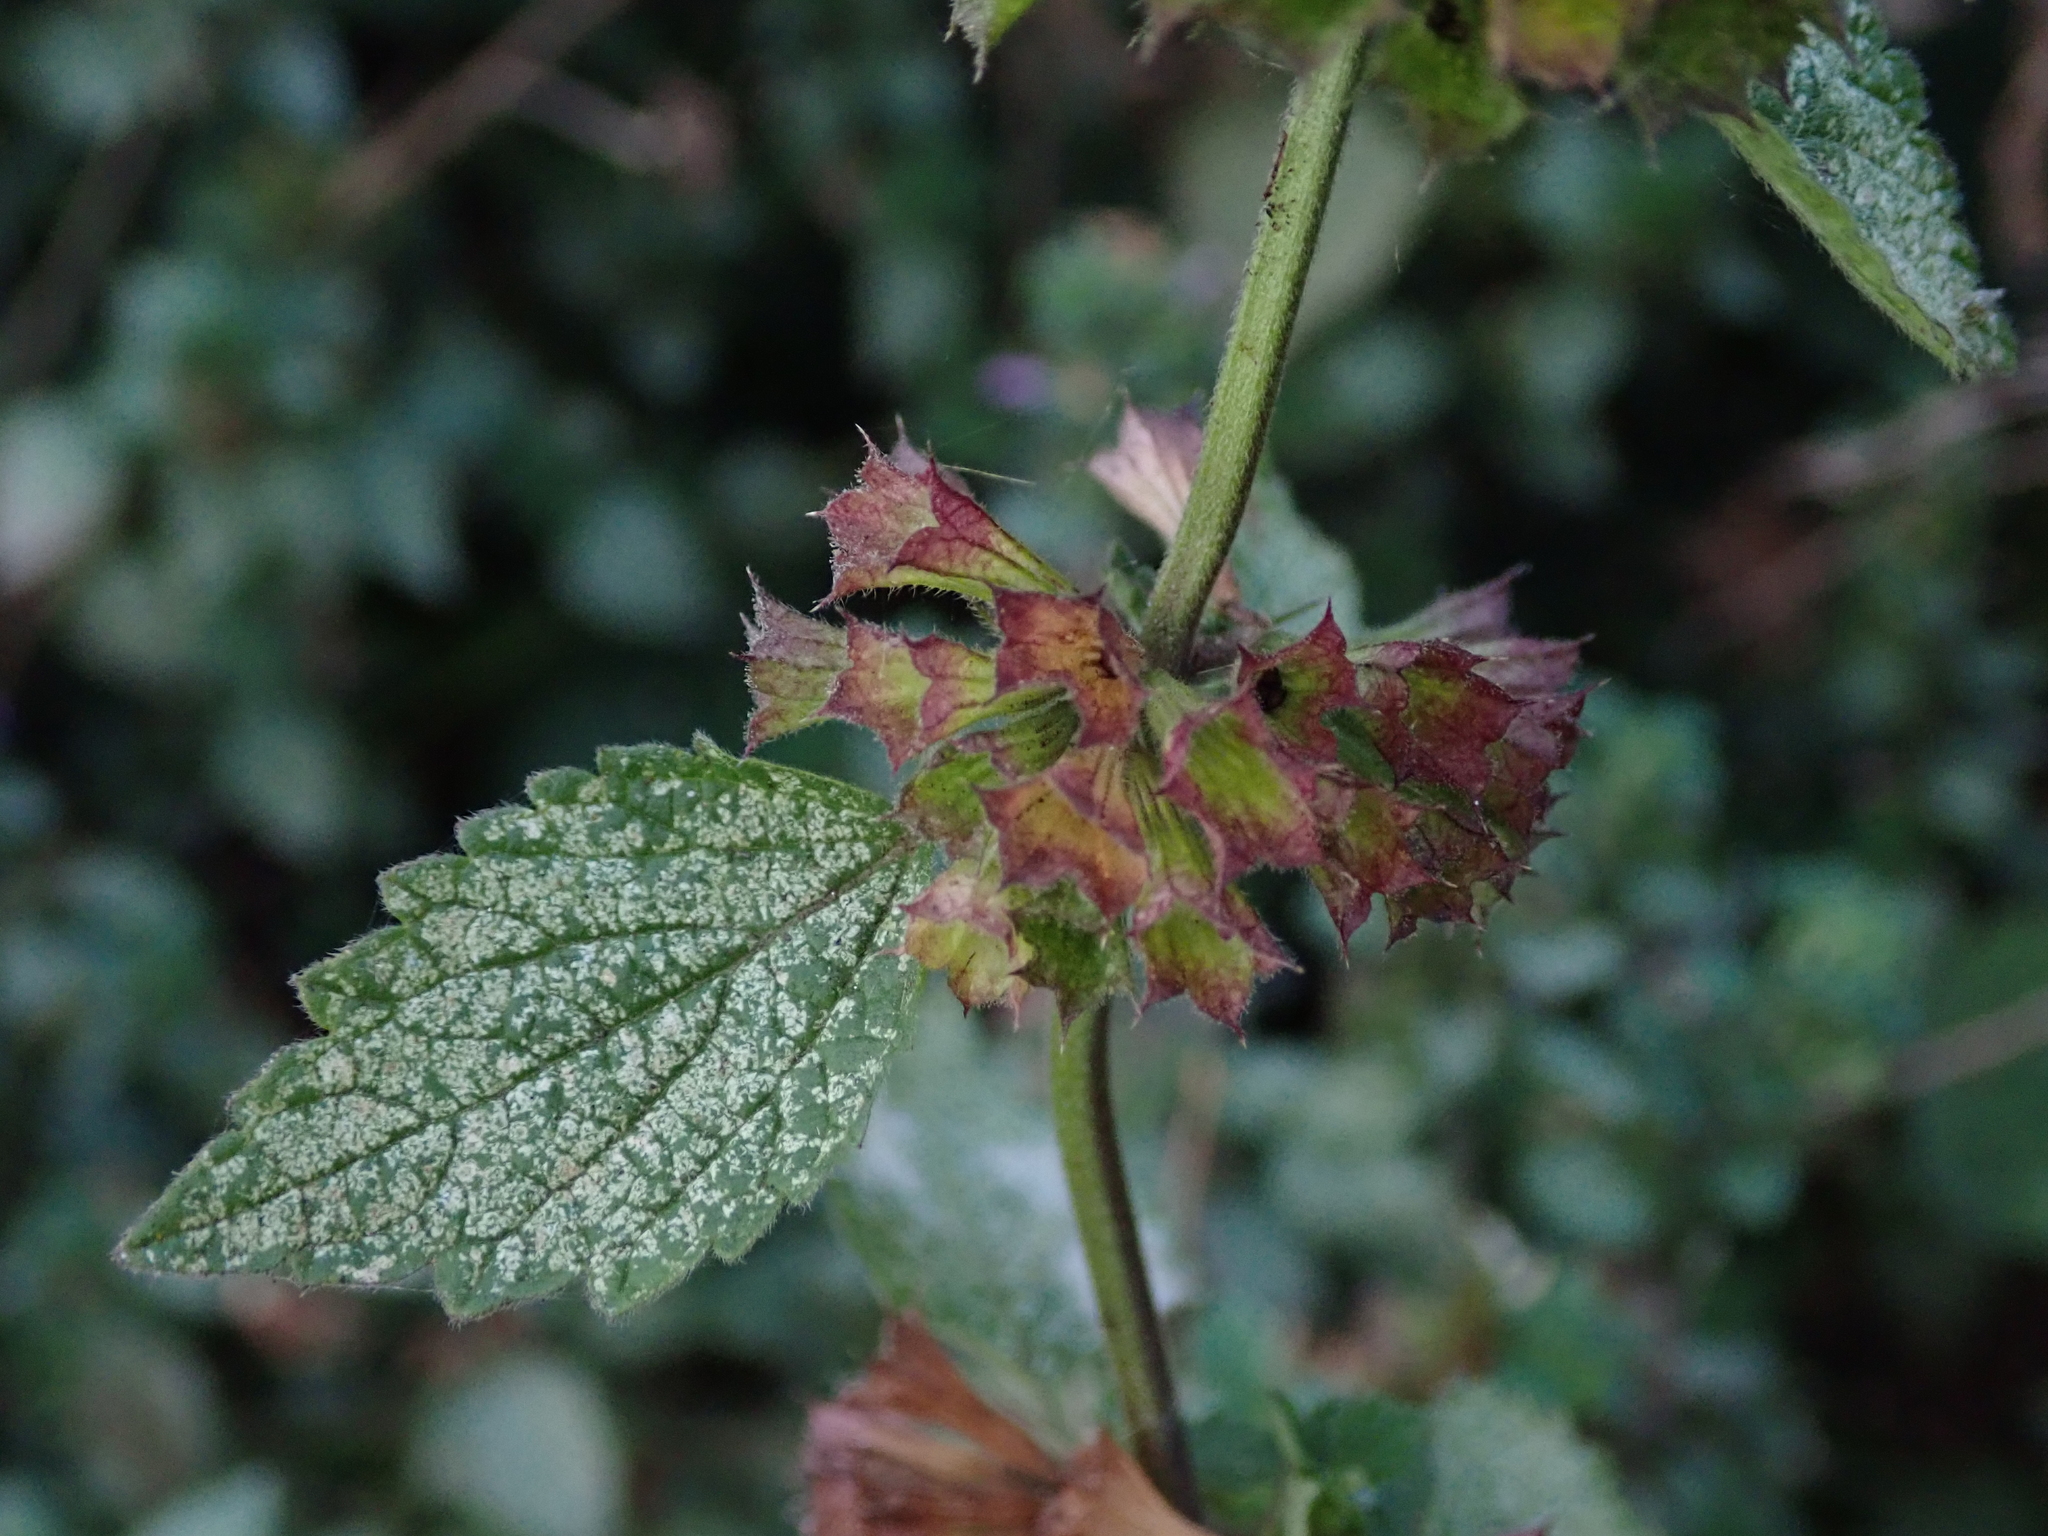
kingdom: Plantae
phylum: Tracheophyta
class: Magnoliopsida
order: Lamiales
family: Lamiaceae
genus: Ballota
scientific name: Ballota nigra
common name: Black horehound
